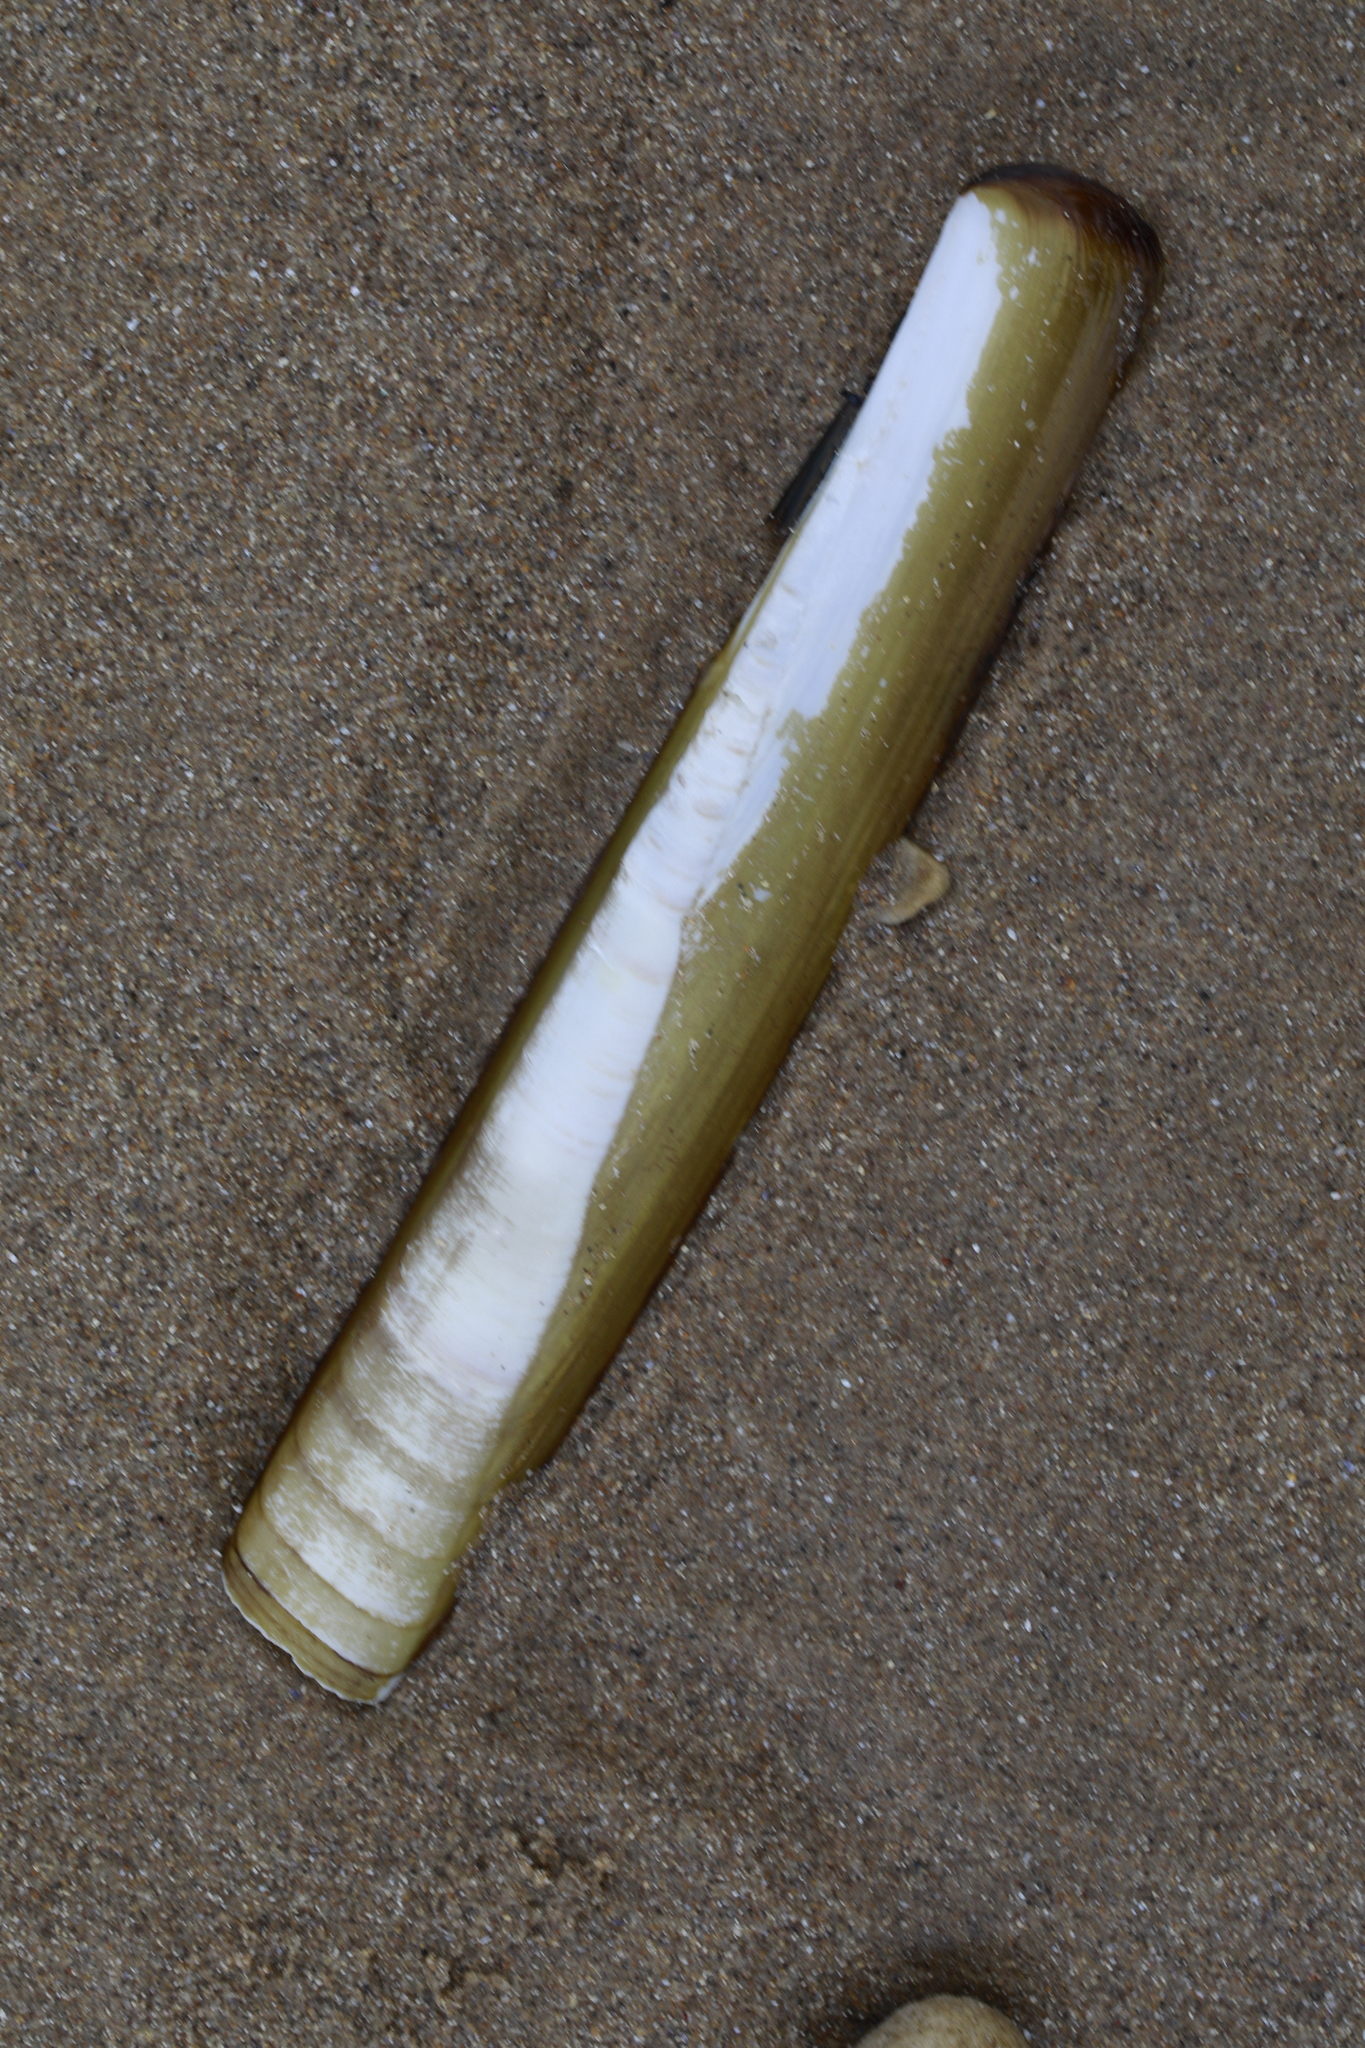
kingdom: Animalia
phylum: Mollusca
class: Bivalvia
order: Adapedonta
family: Pharidae
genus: Ensis
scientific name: Ensis siliqua
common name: Pod razor shell
